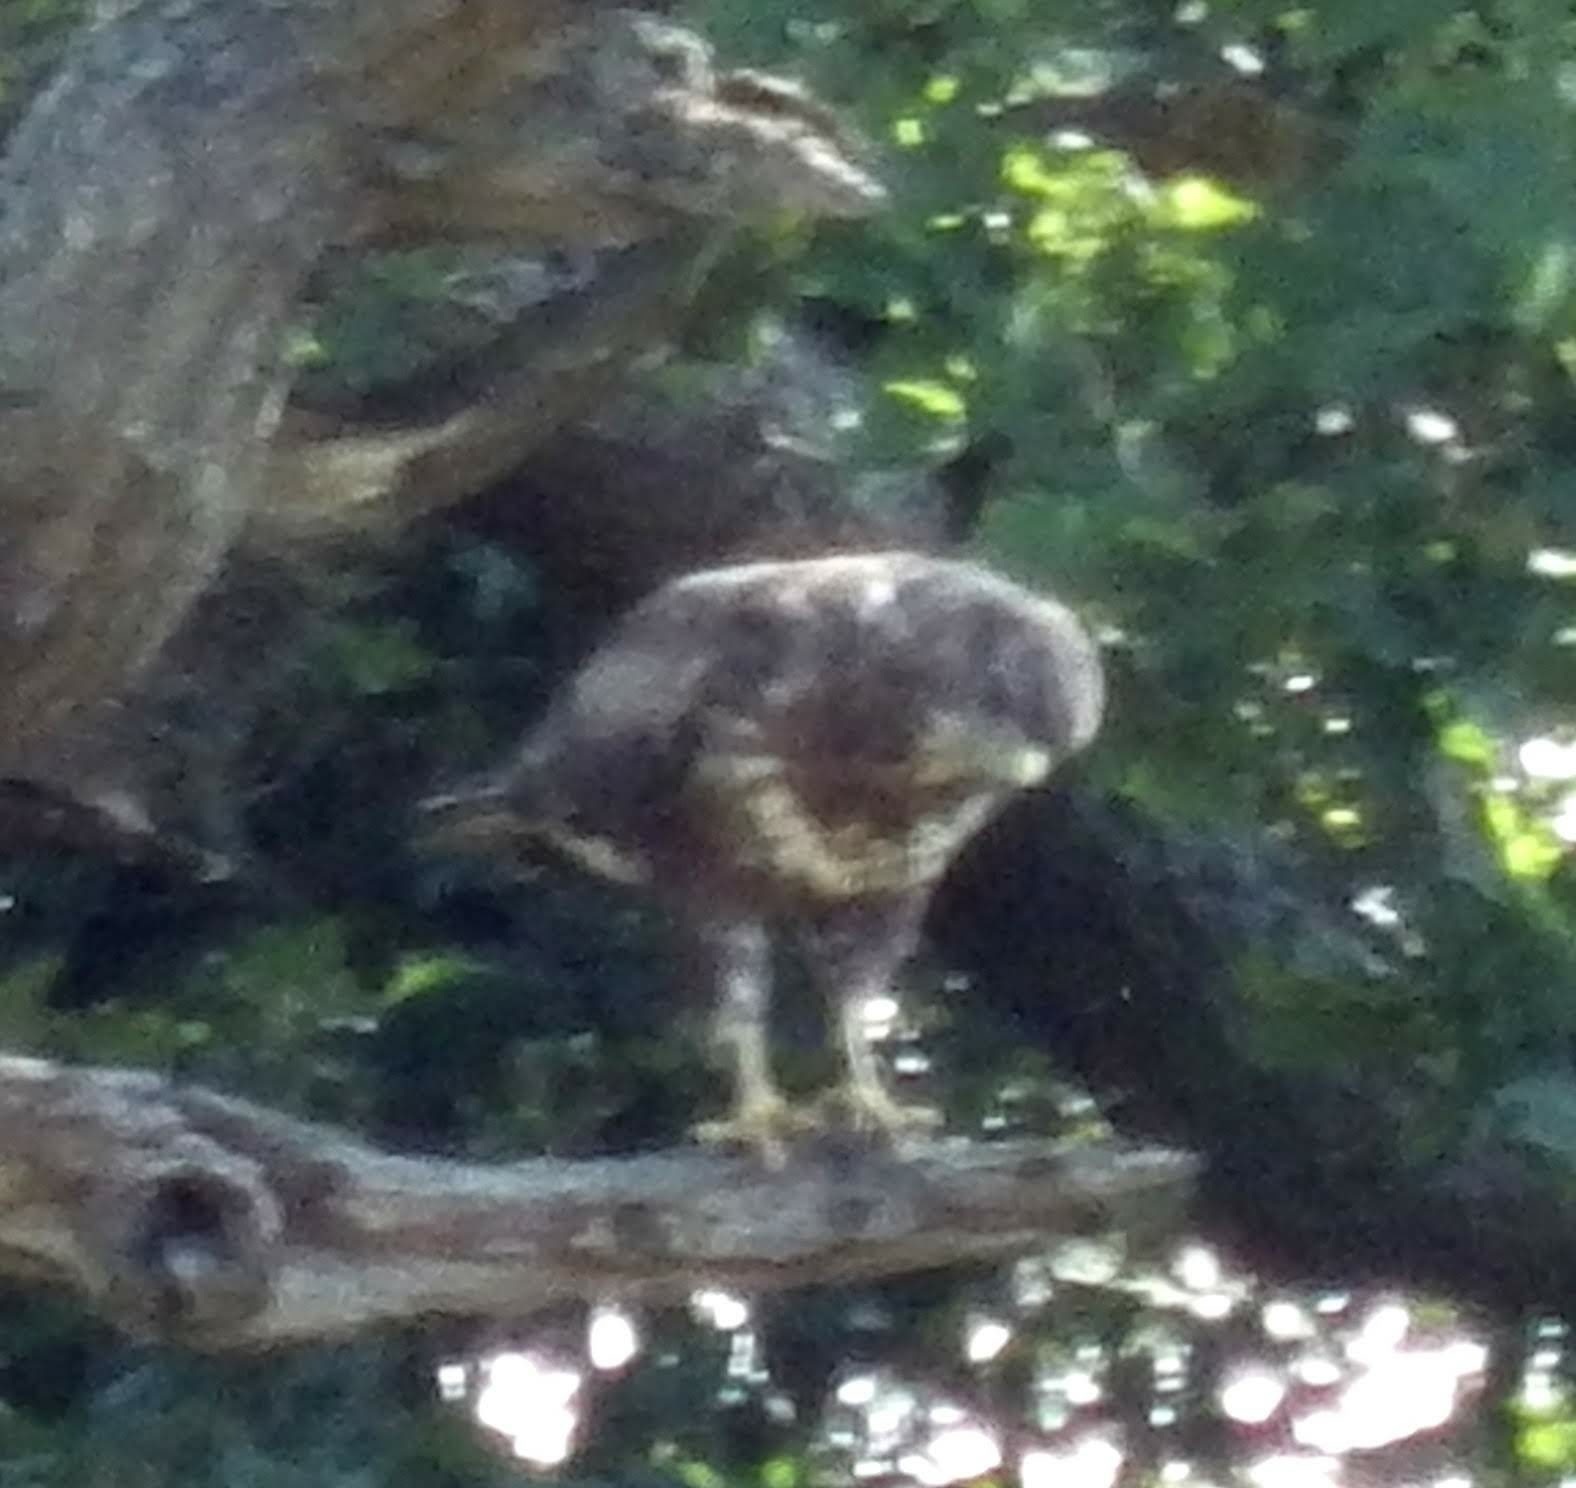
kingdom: Animalia
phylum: Chordata
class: Aves
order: Accipitriformes
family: Accipitridae
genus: Buteo
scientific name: Buteo buteo
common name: Common buzzard
